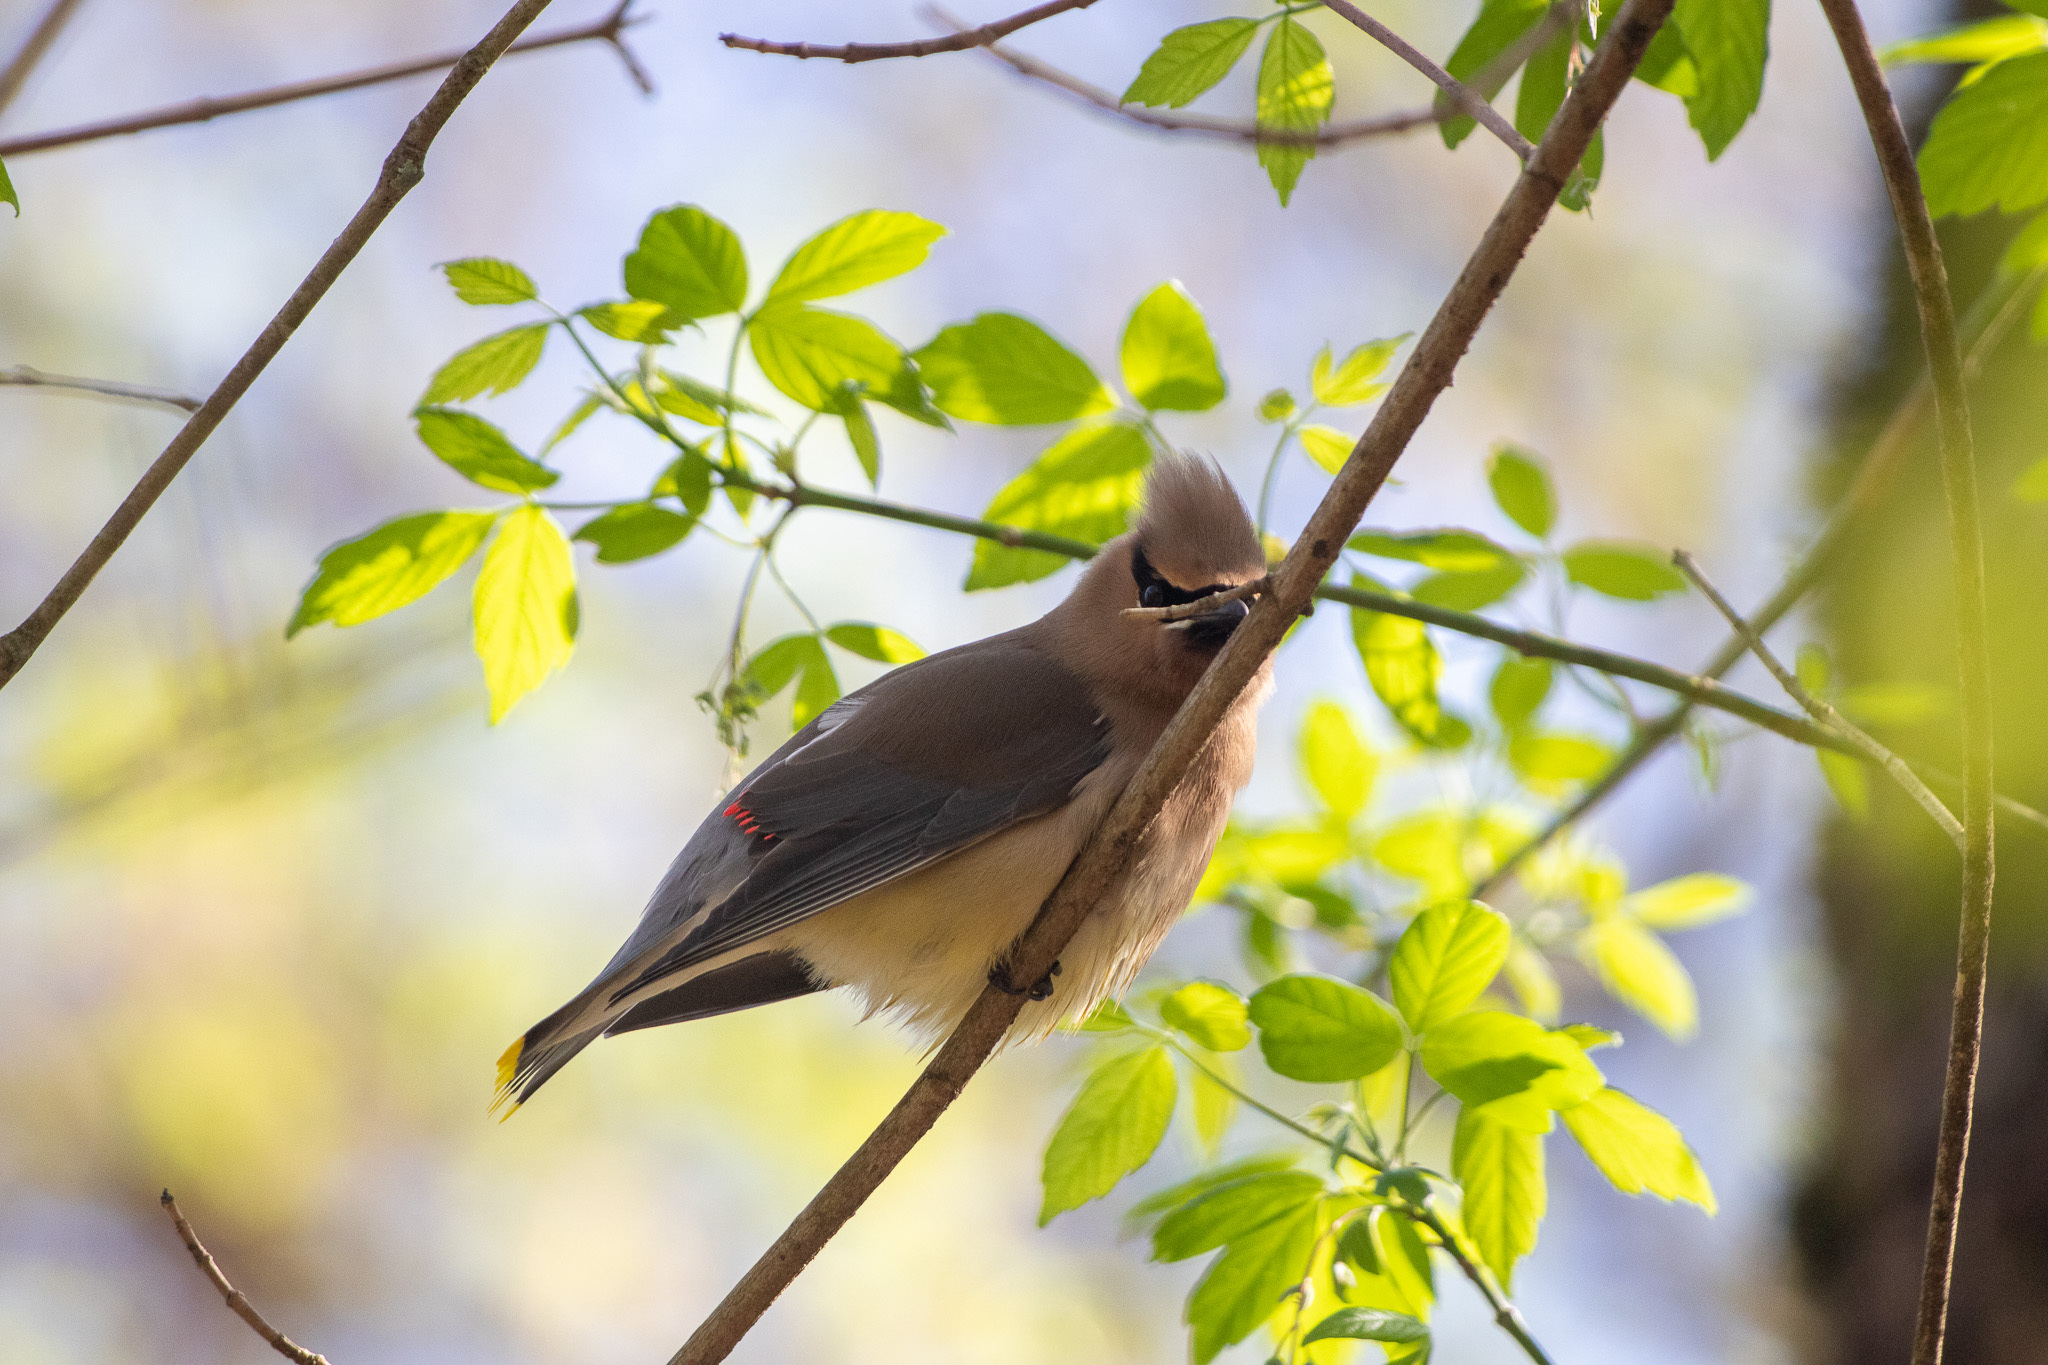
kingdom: Animalia
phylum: Chordata
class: Aves
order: Passeriformes
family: Bombycillidae
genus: Bombycilla
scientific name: Bombycilla cedrorum
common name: Cedar waxwing
